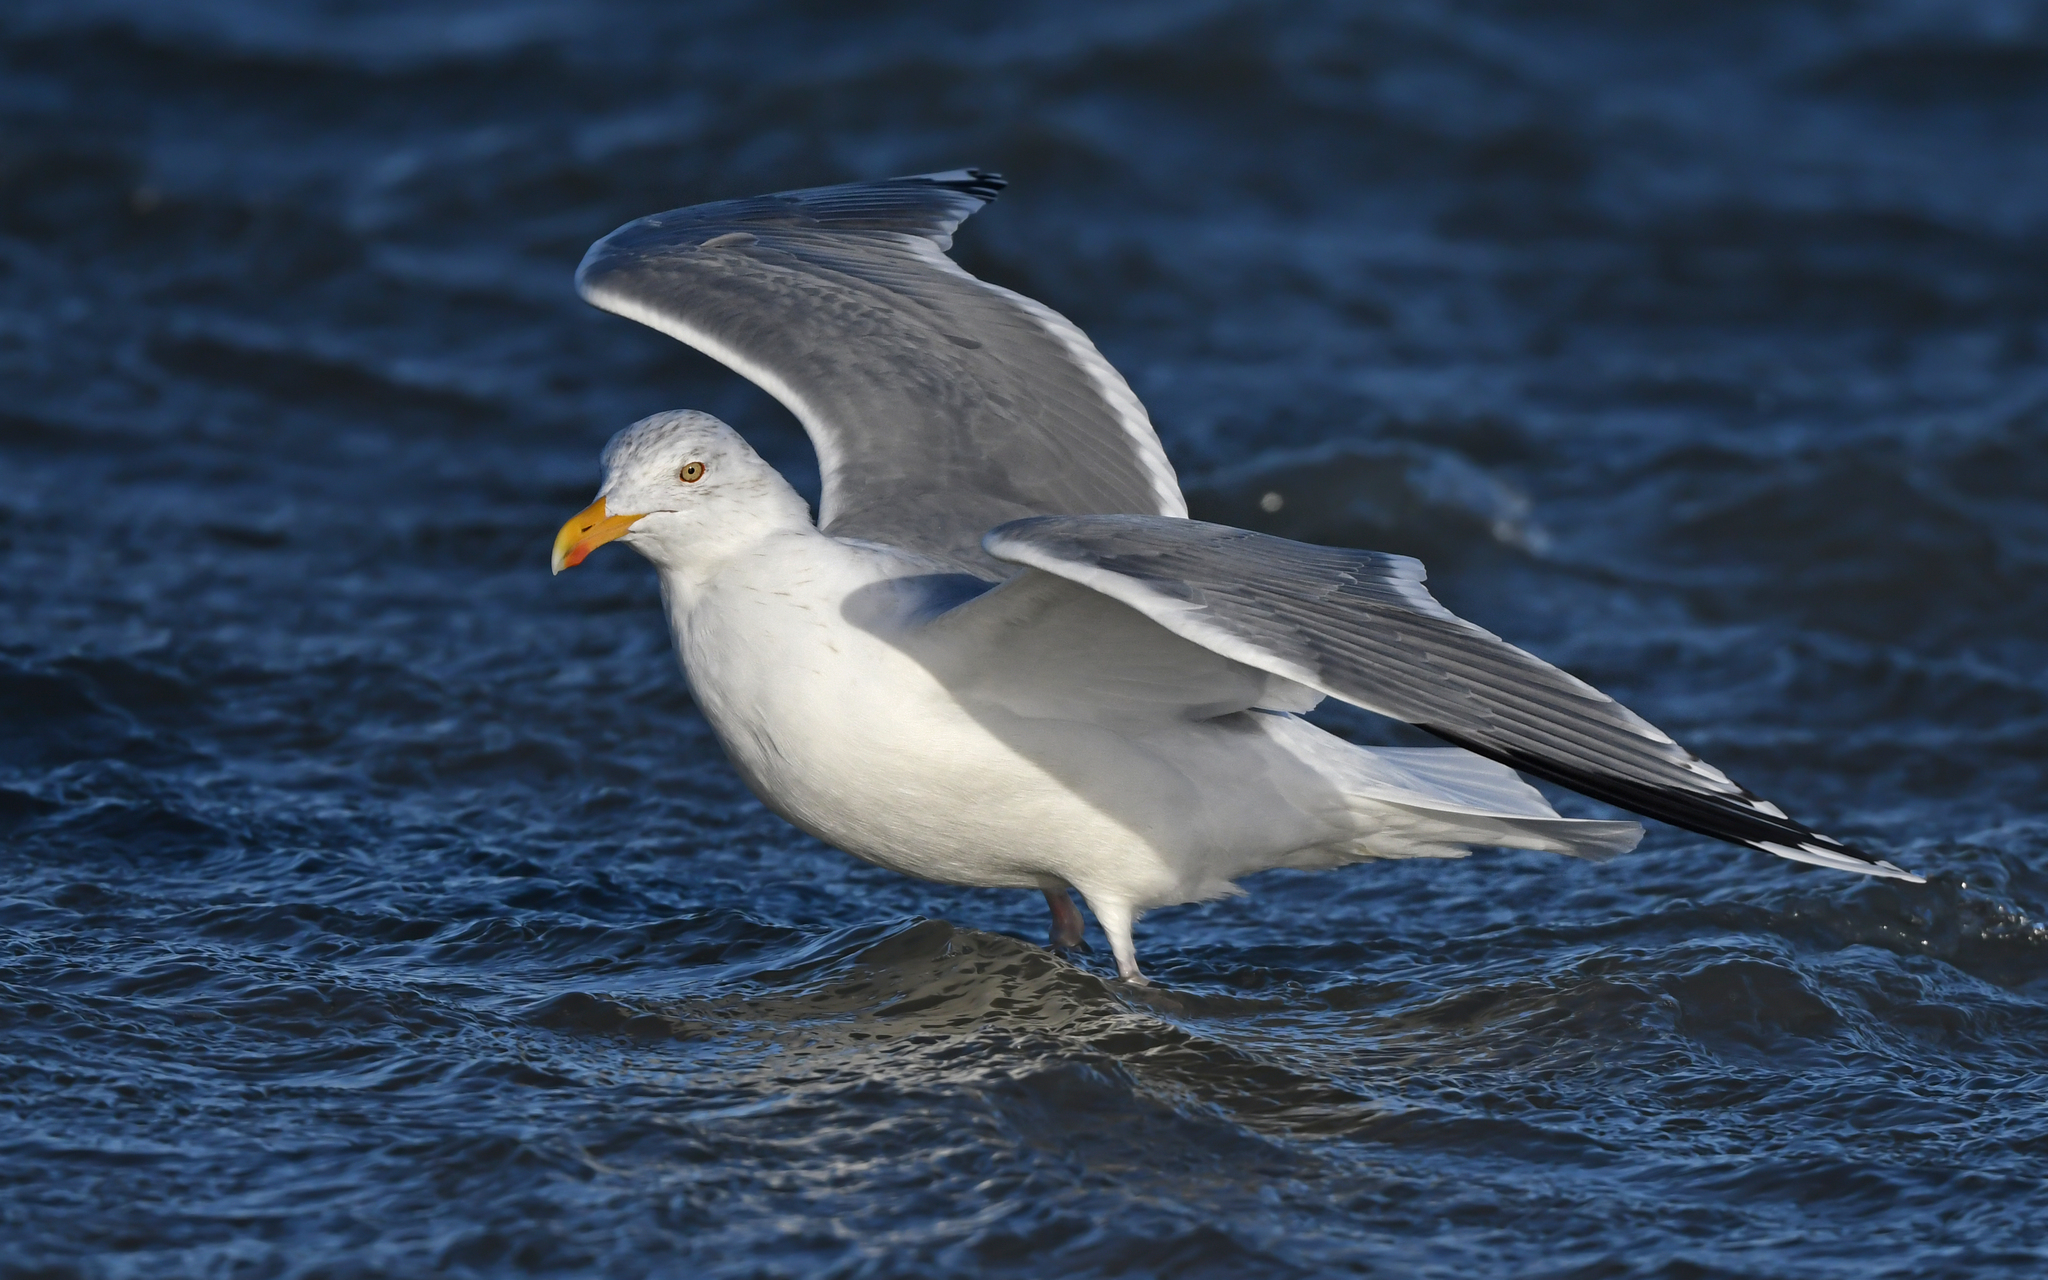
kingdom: Animalia
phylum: Chordata
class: Aves
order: Charadriiformes
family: Laridae
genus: Larus
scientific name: Larus argentatus
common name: Herring gull
